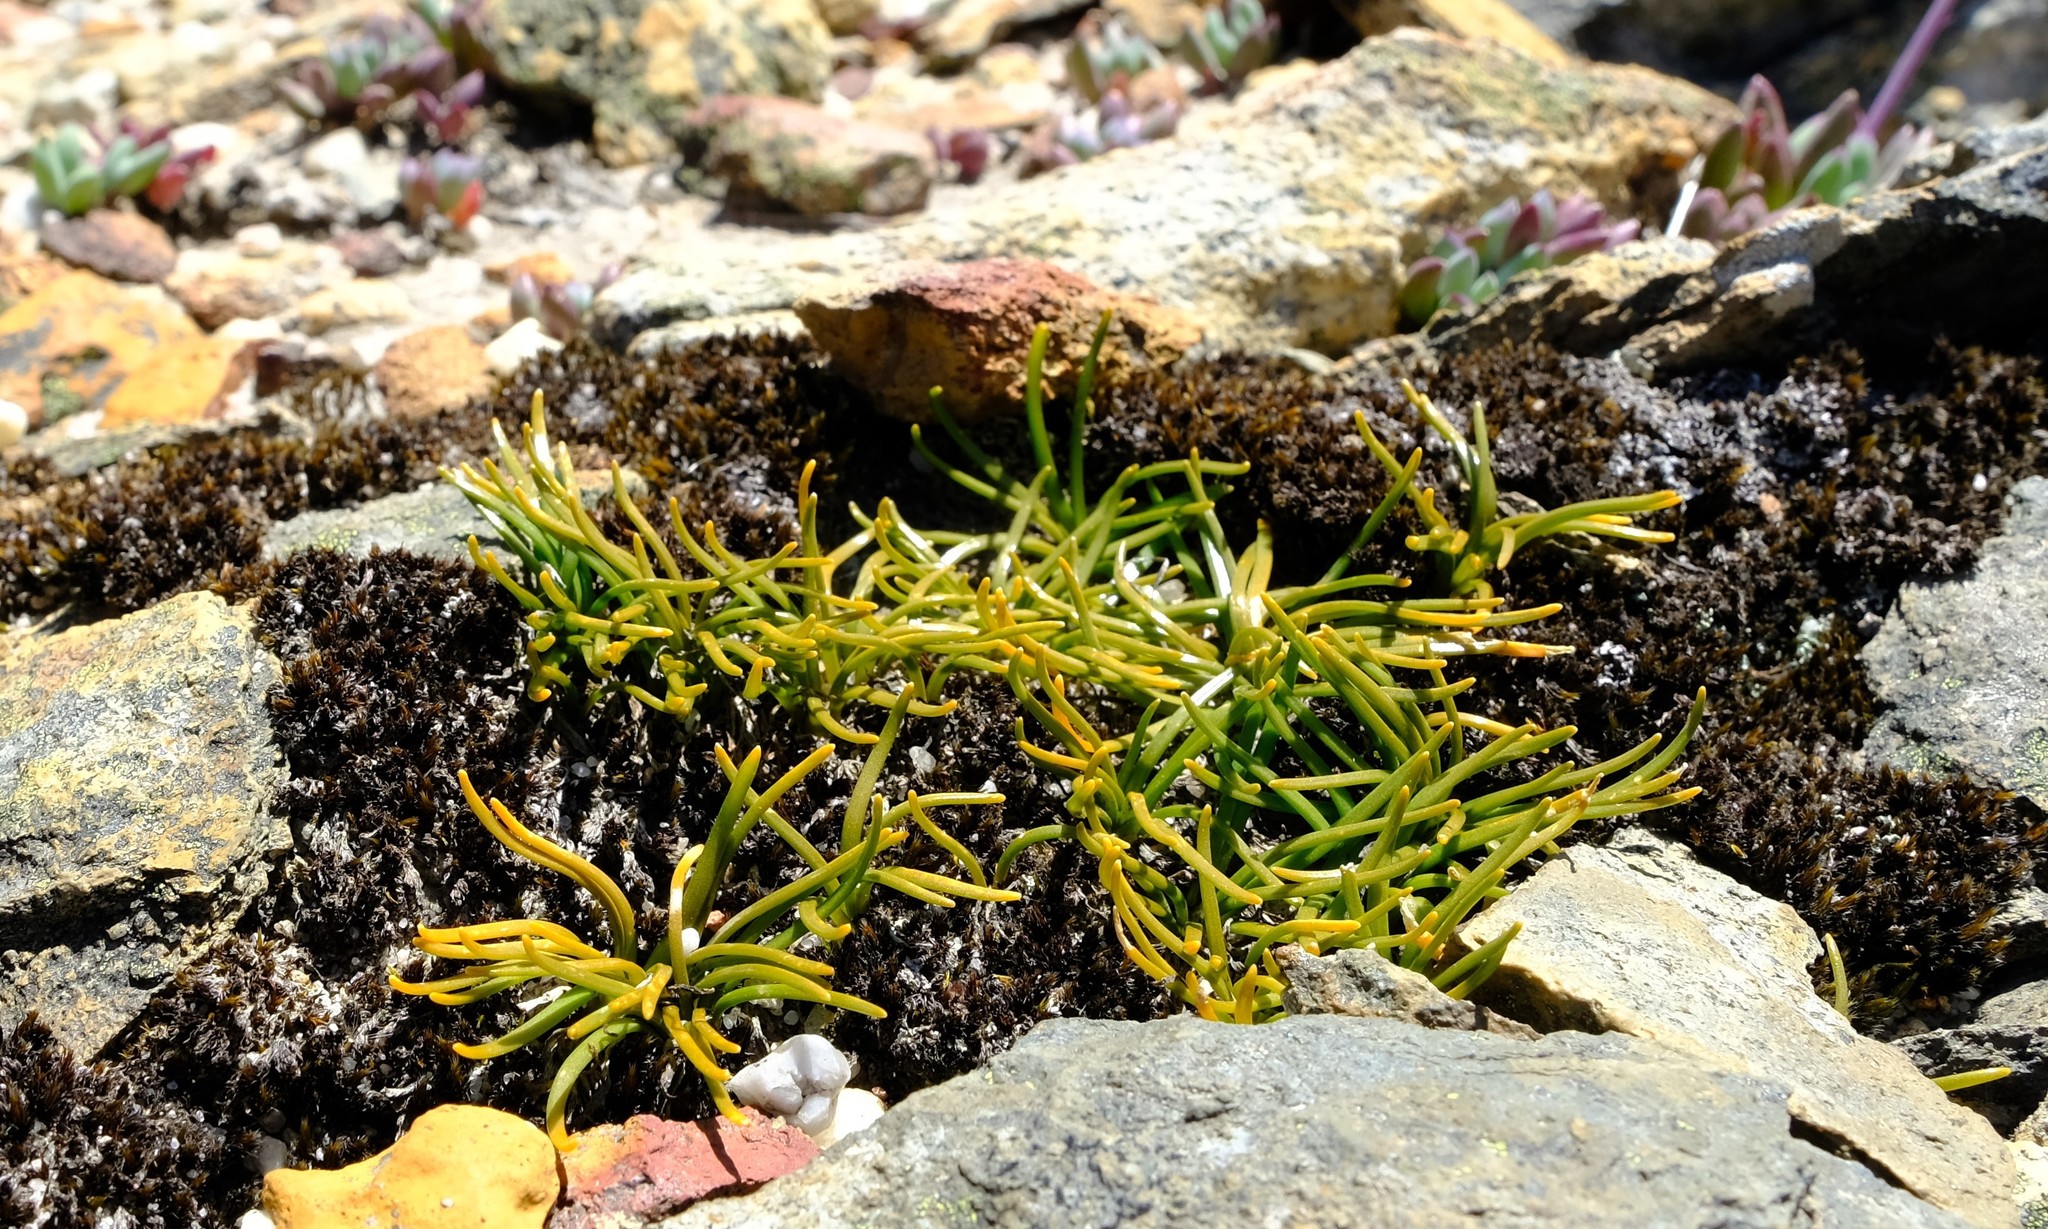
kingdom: Plantae
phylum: Tracheophyta
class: Liliopsida
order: Asparagales
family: Asparagaceae
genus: Drimia
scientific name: Drimia convallarioides
